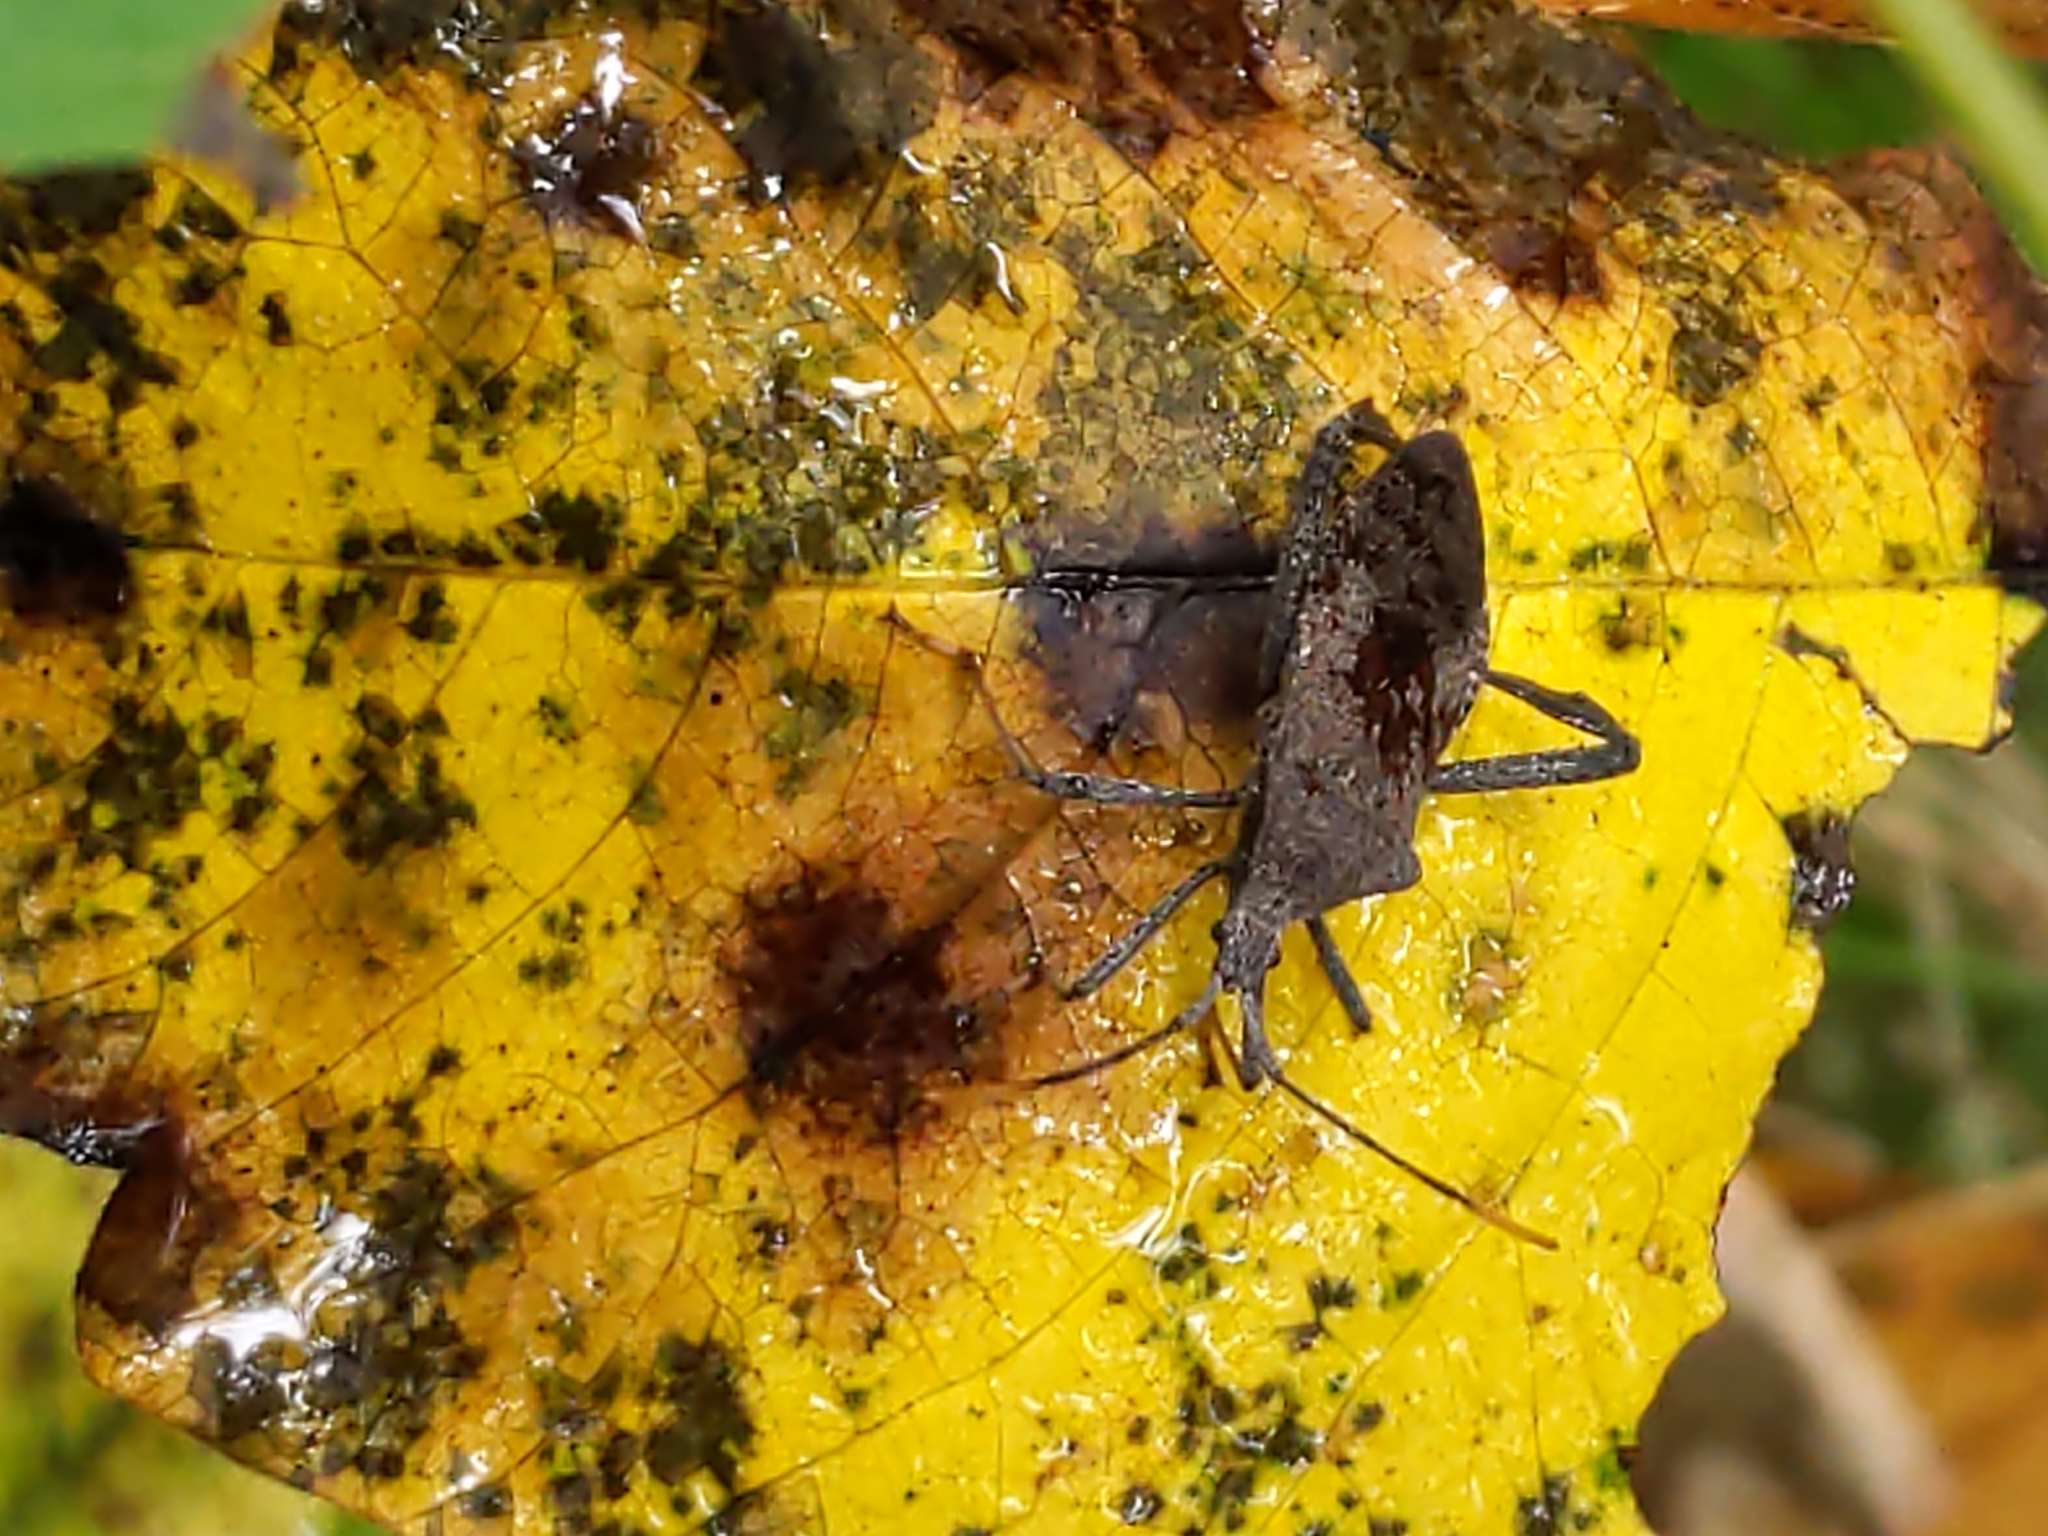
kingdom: Animalia
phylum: Arthropoda
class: Insecta
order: Hemiptera
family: Coreidae
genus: Acanthocephala
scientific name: Acanthocephala terminalis
